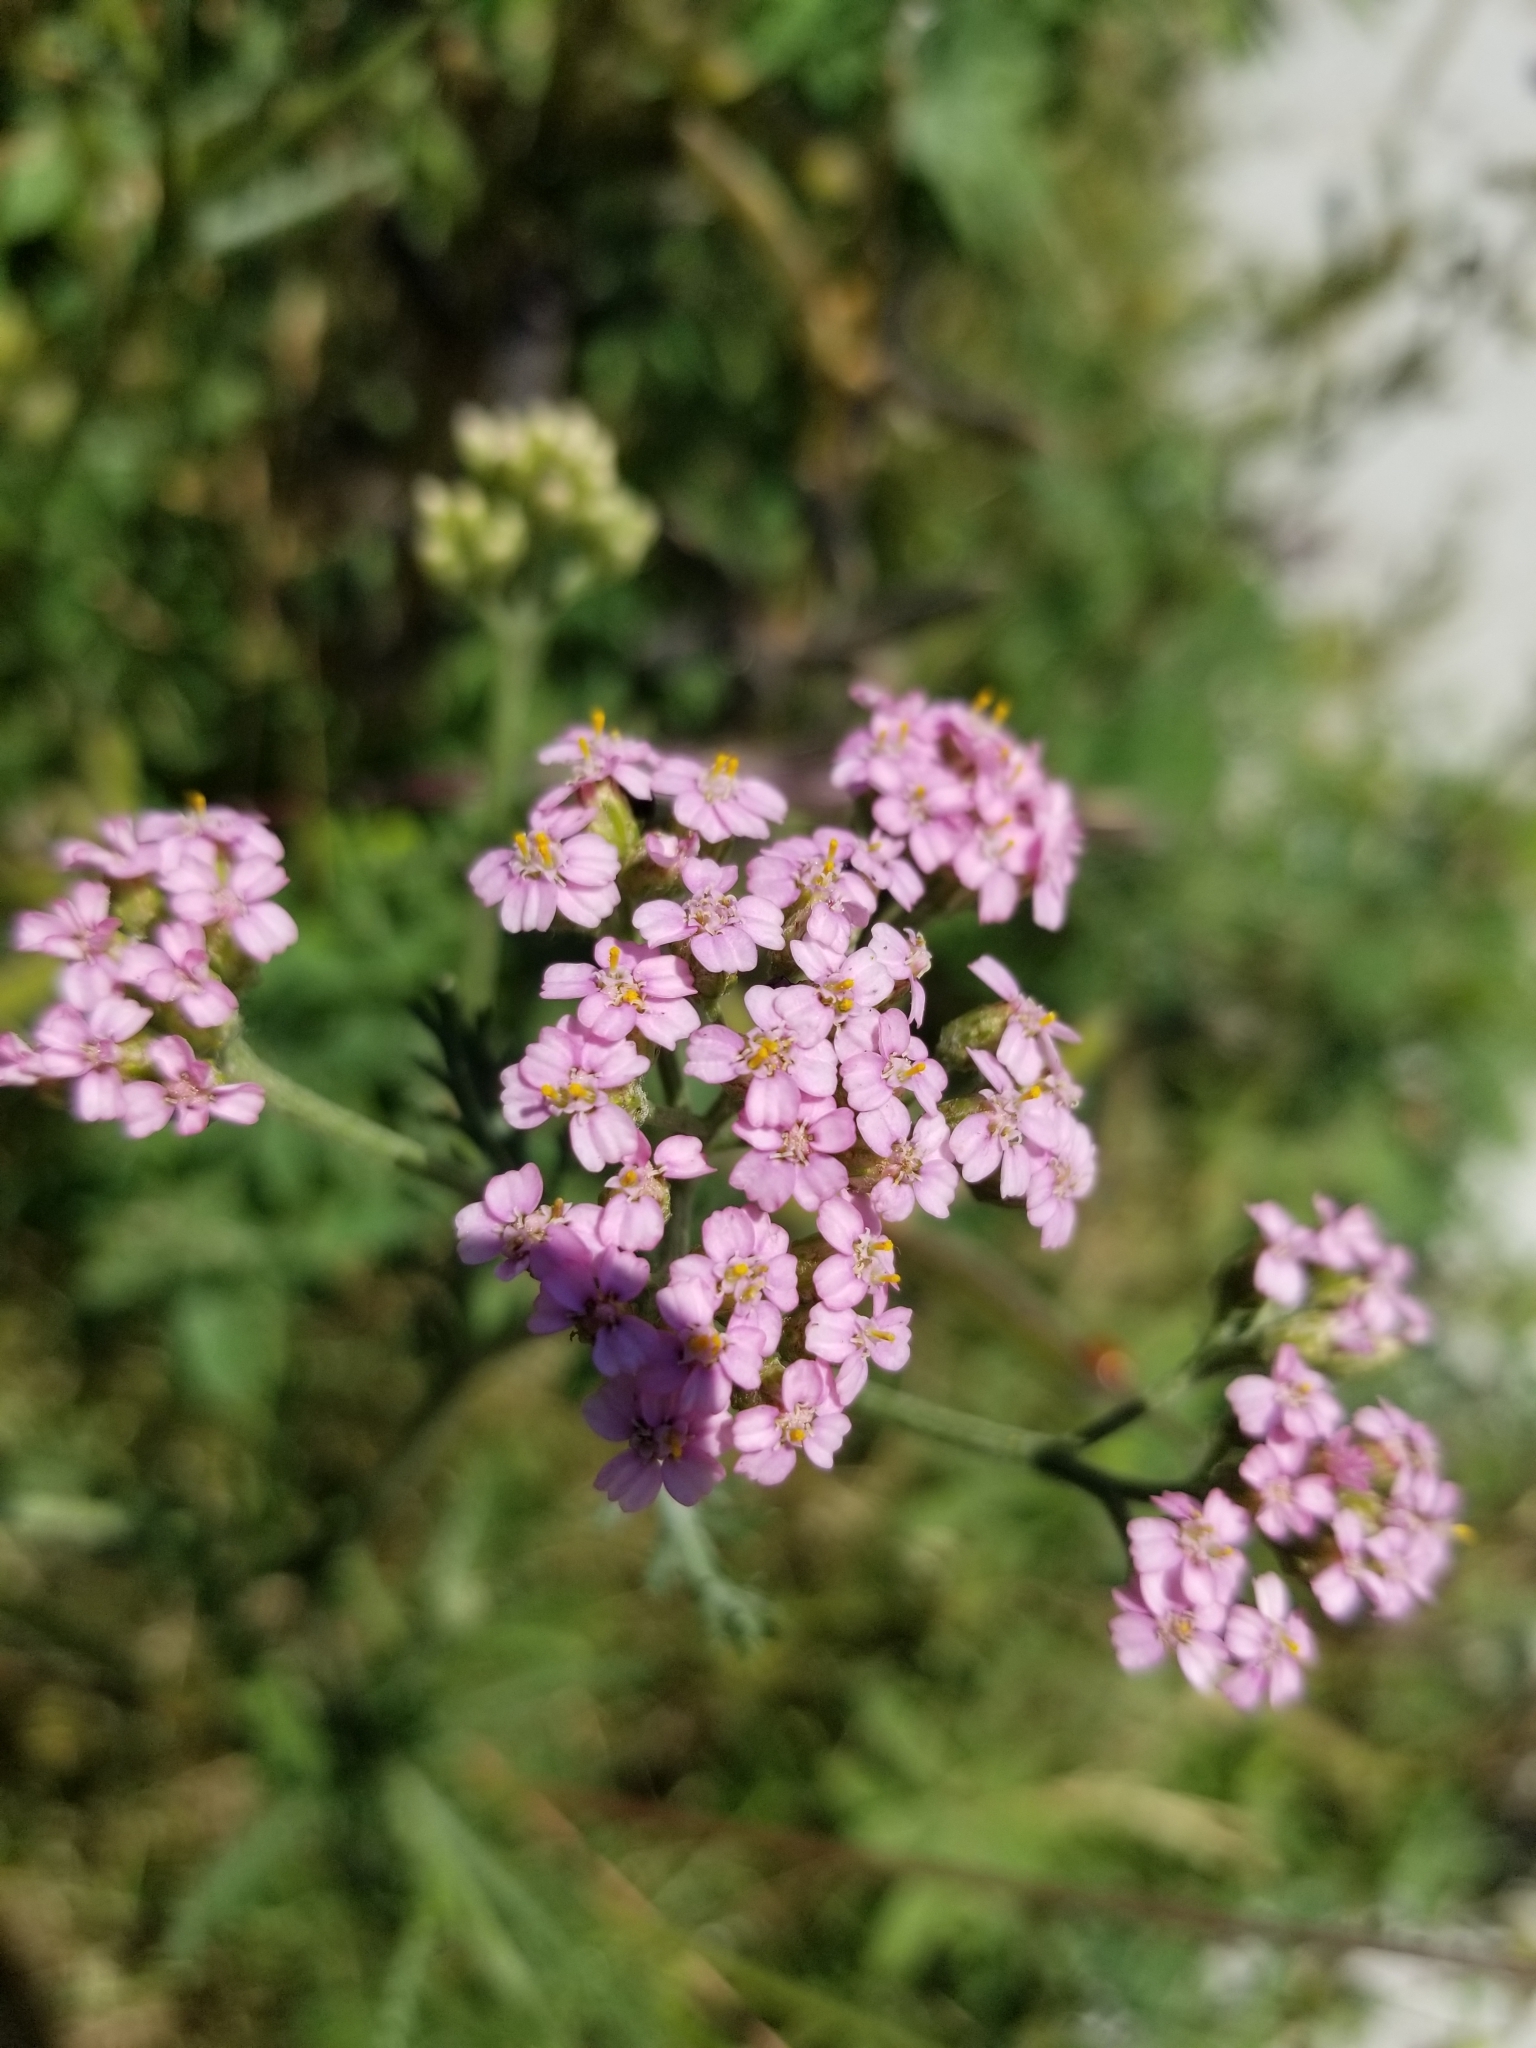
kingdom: Plantae
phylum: Tracheophyta
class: Magnoliopsida
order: Asterales
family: Asteraceae
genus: Achillea
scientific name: Achillea millefolium
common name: Yarrow
